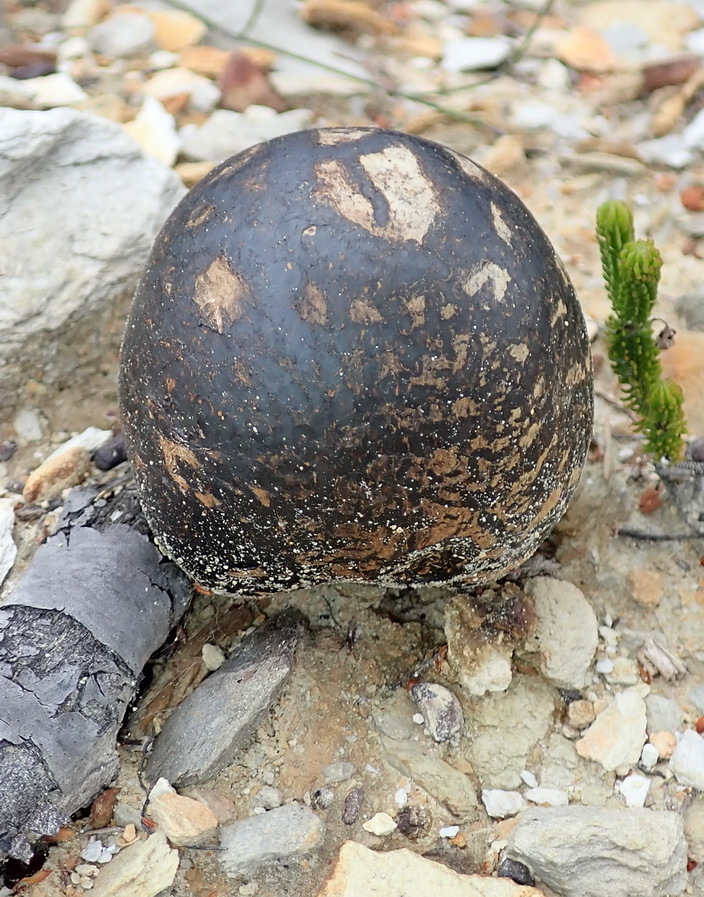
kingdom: Fungi
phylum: Basidiomycota
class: Agaricomycetes
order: Boletales
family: Sclerodermataceae
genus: Pisolithus
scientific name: Pisolithus arhizus
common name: Dyeball
